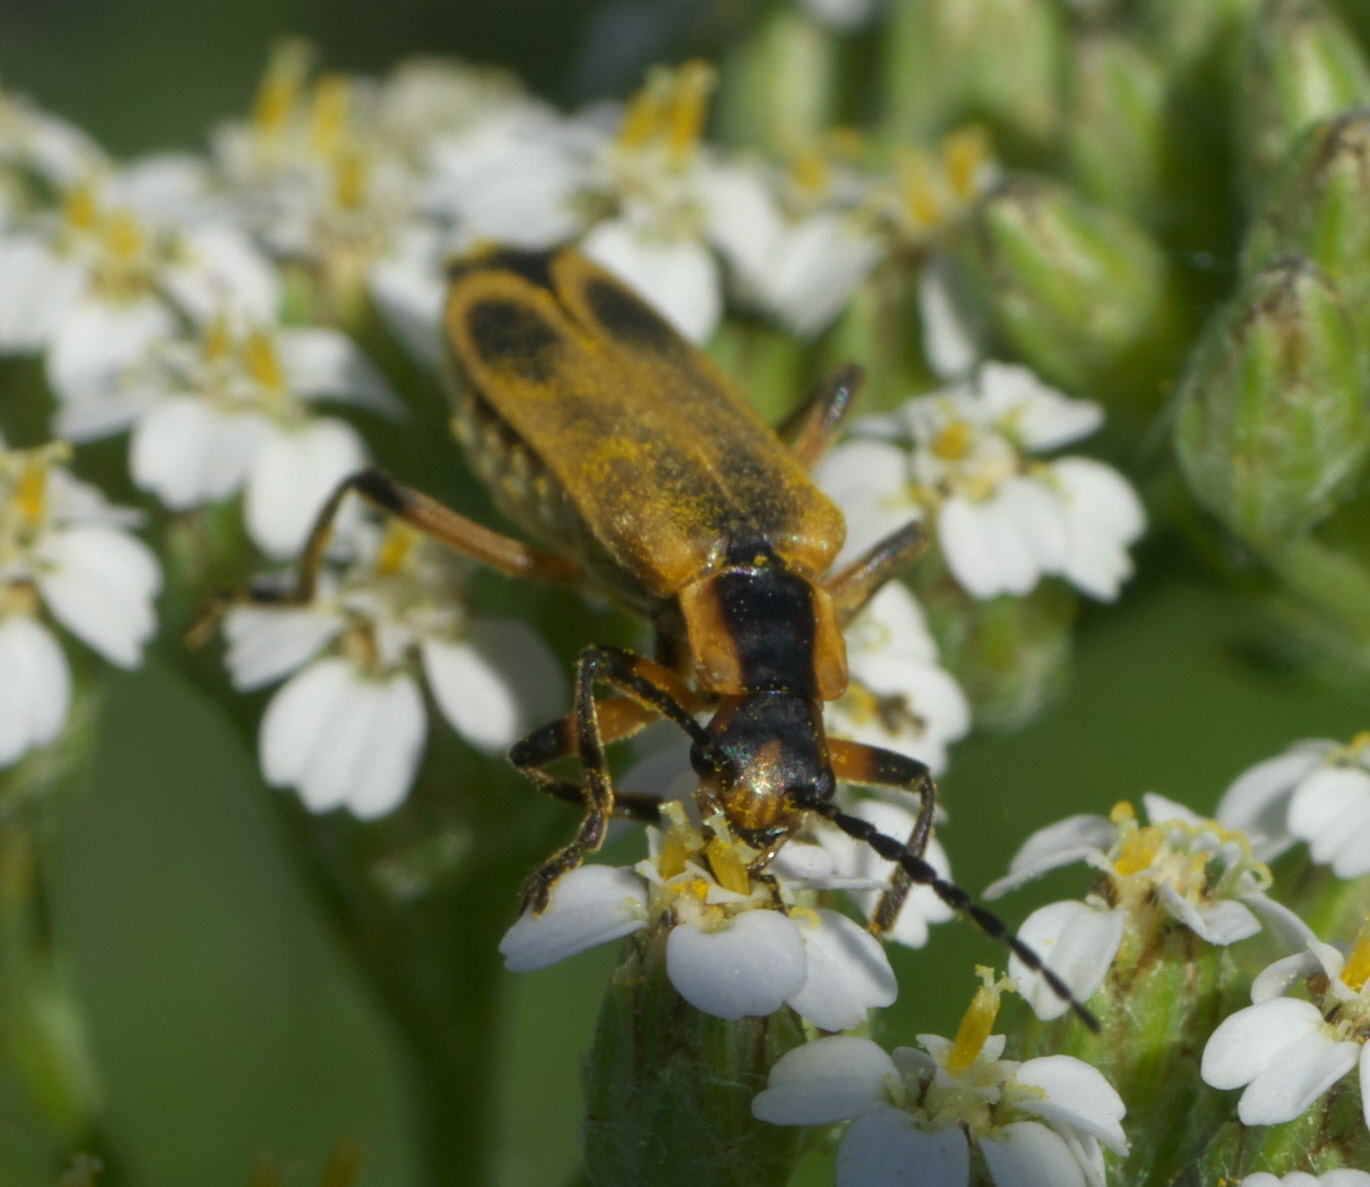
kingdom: Animalia
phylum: Arthropoda
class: Insecta
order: Coleoptera
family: Cantharidae
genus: Chauliognathus
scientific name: Chauliognathus marginatus
